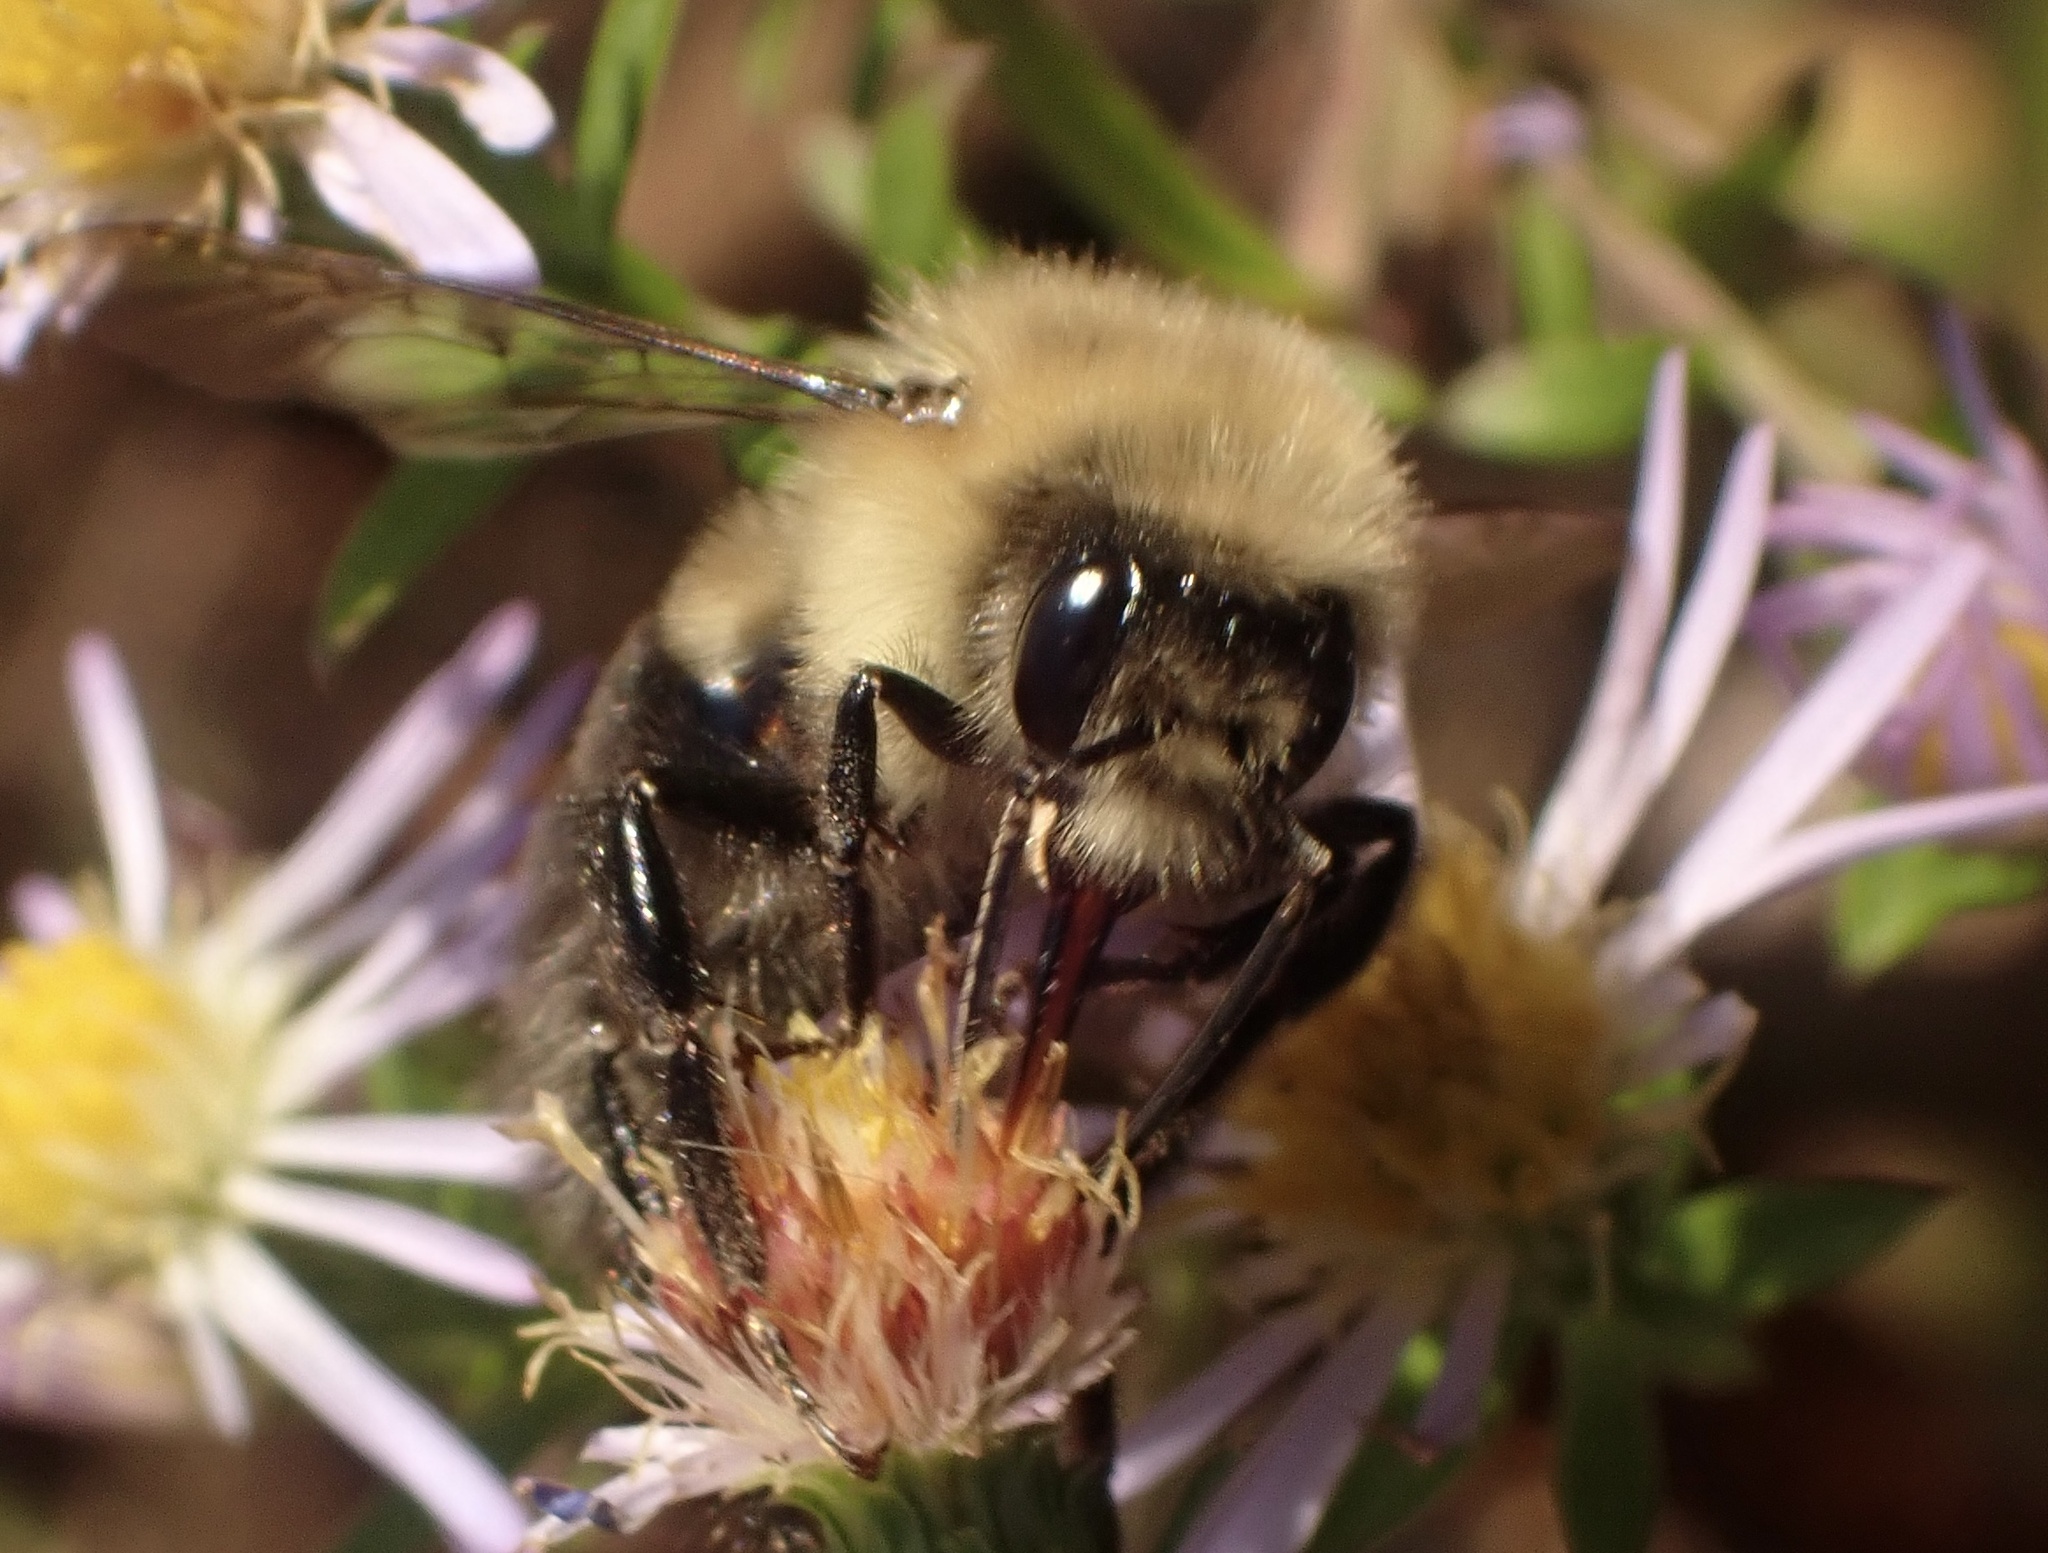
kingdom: Animalia
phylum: Arthropoda
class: Insecta
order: Hymenoptera
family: Apidae
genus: Bombus
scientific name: Bombus impatiens
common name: Common eastern bumble bee
